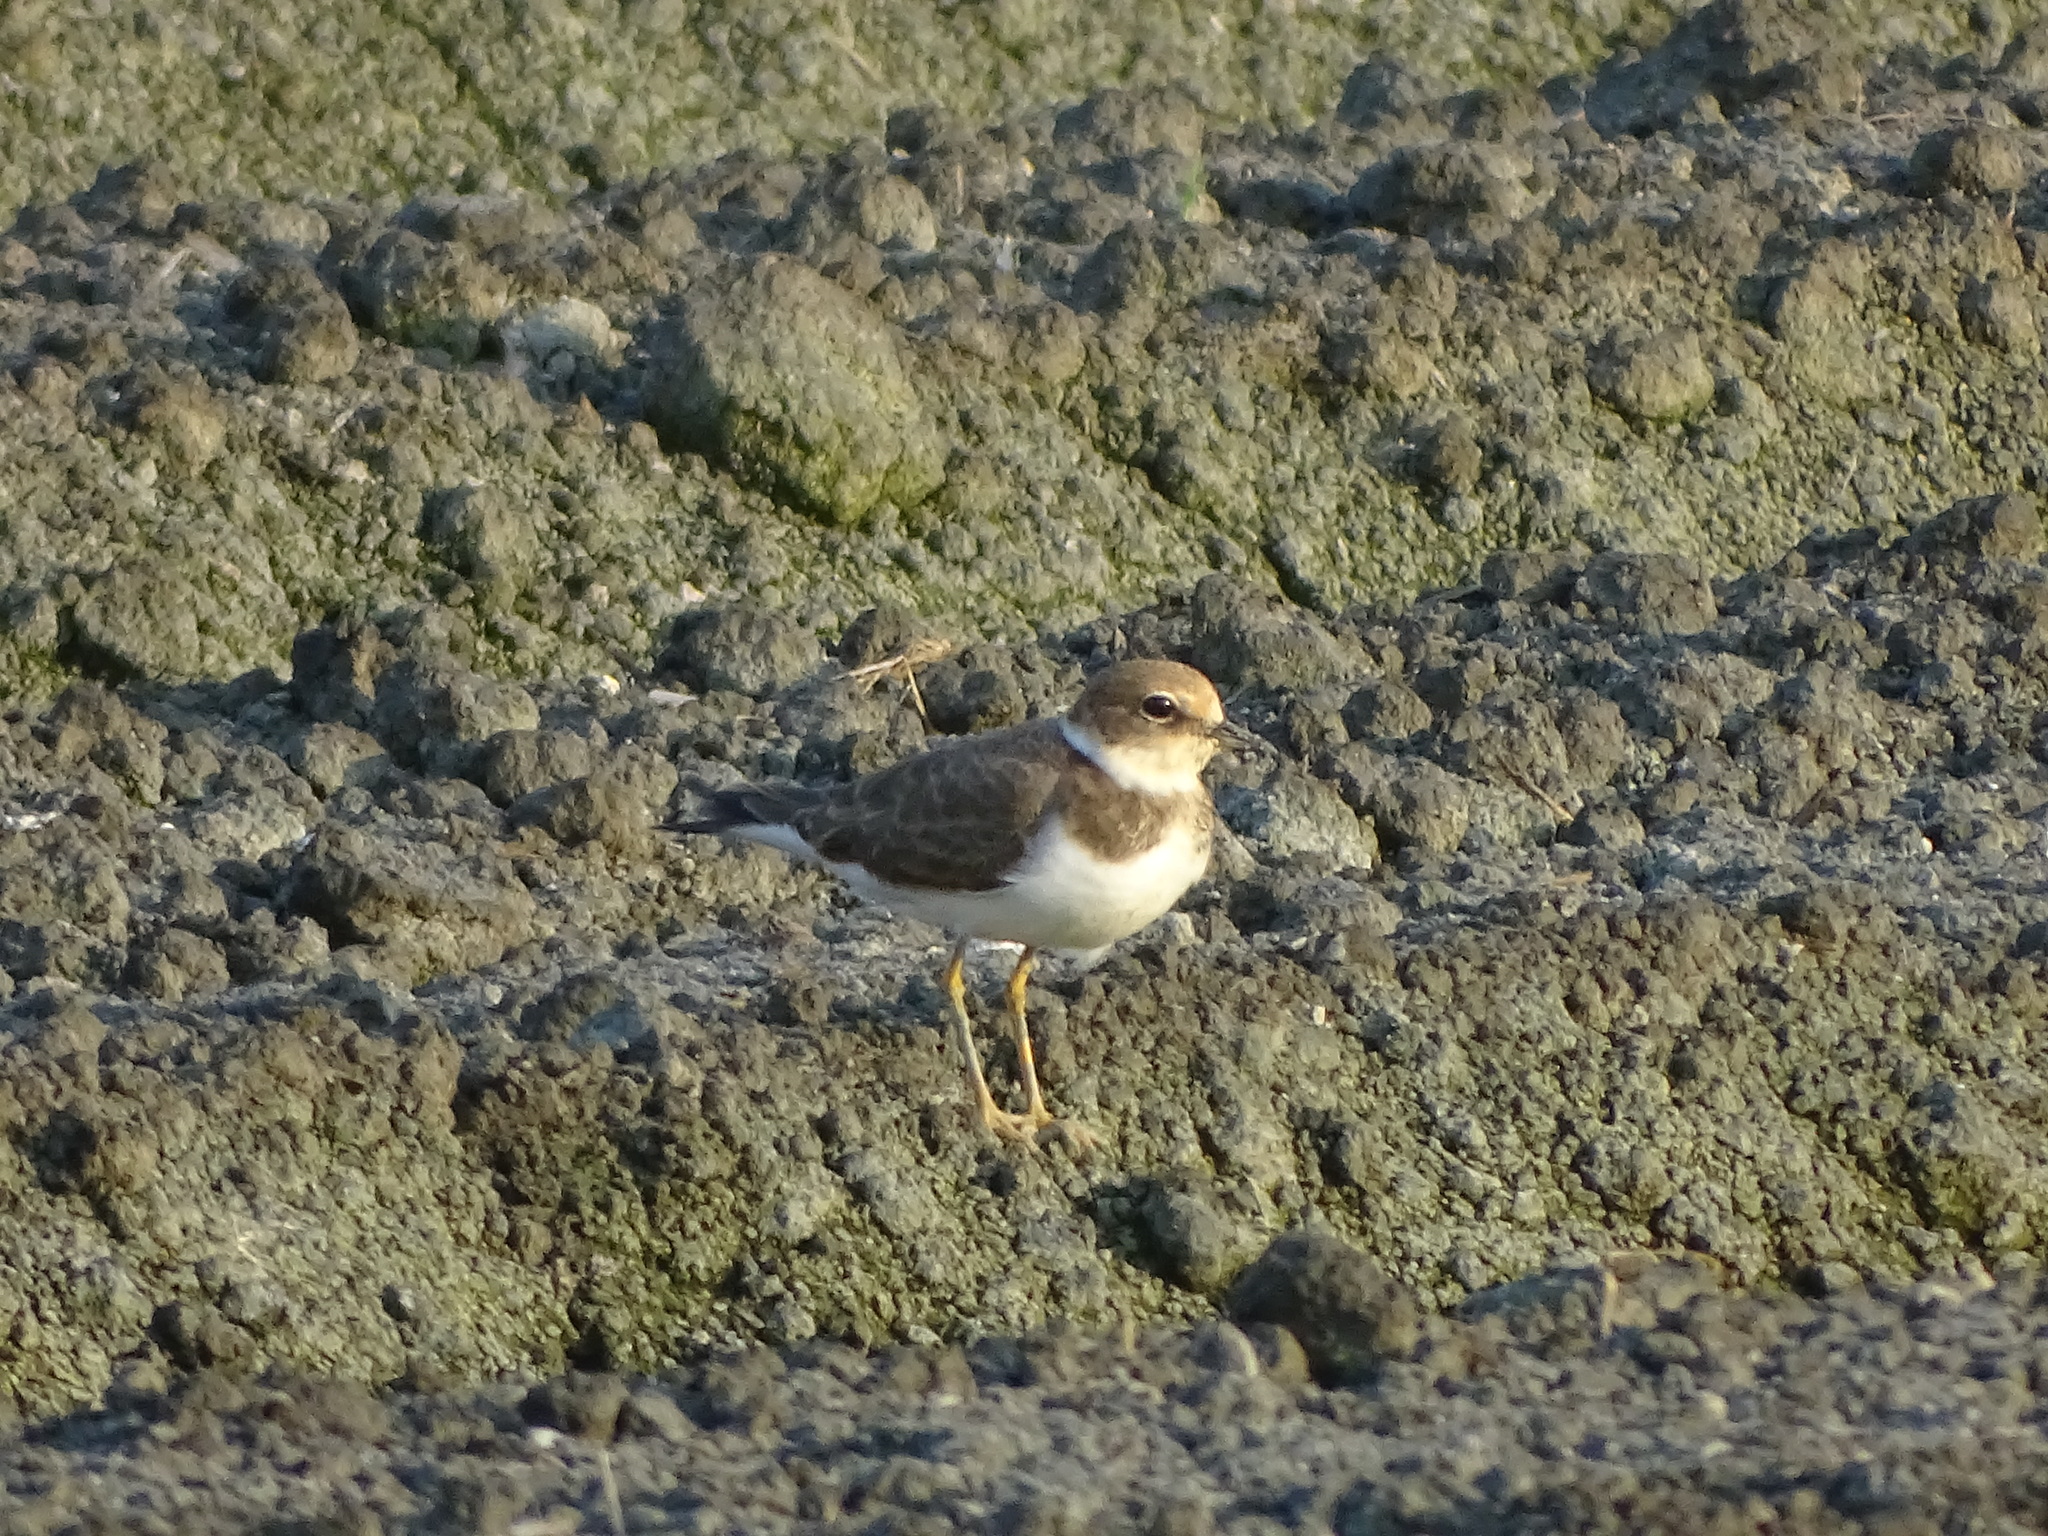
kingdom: Animalia
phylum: Chordata
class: Aves
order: Charadriiformes
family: Charadriidae
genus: Charadrius
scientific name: Charadrius dubius
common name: Little ringed plover
